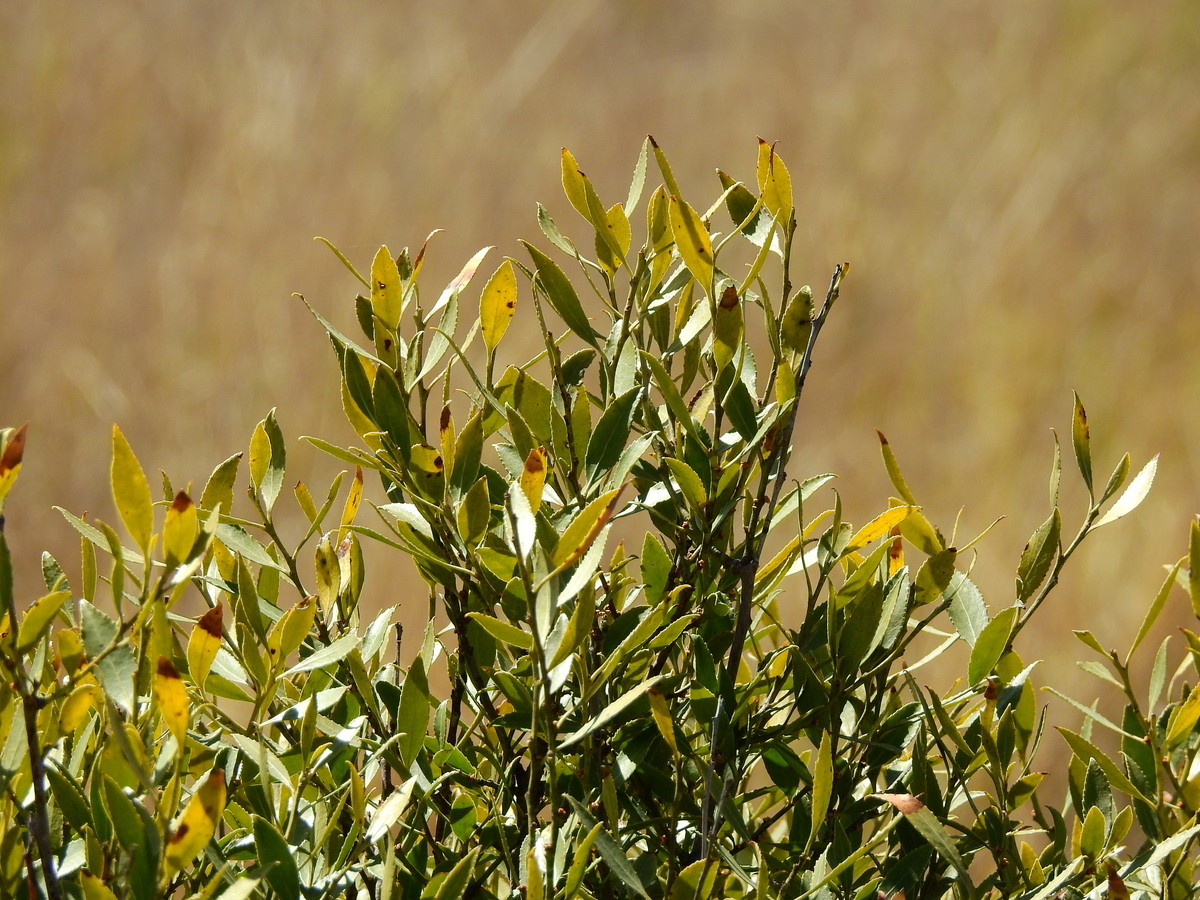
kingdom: Plantae
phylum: Tracheophyta
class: Magnoliopsida
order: Celastrales
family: Celastraceae
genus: Maytenus
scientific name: Maytenus boaria
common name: Mayten
